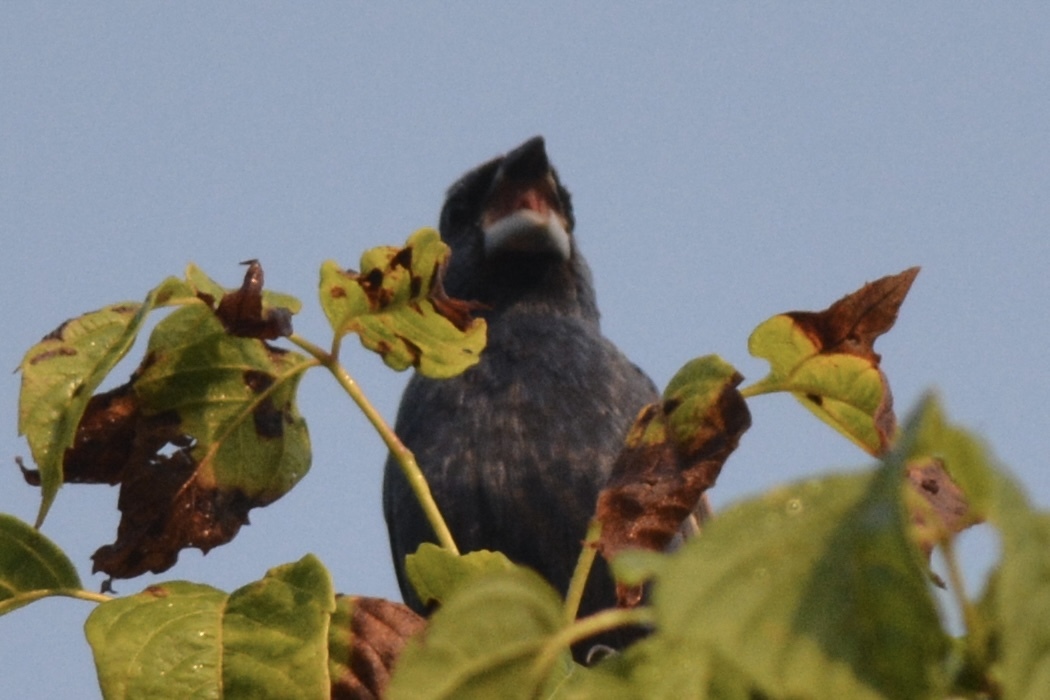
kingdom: Animalia
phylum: Chordata
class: Aves
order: Passeriformes
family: Cardinalidae
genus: Passerina
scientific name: Passerina caerulea
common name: Blue grosbeak
